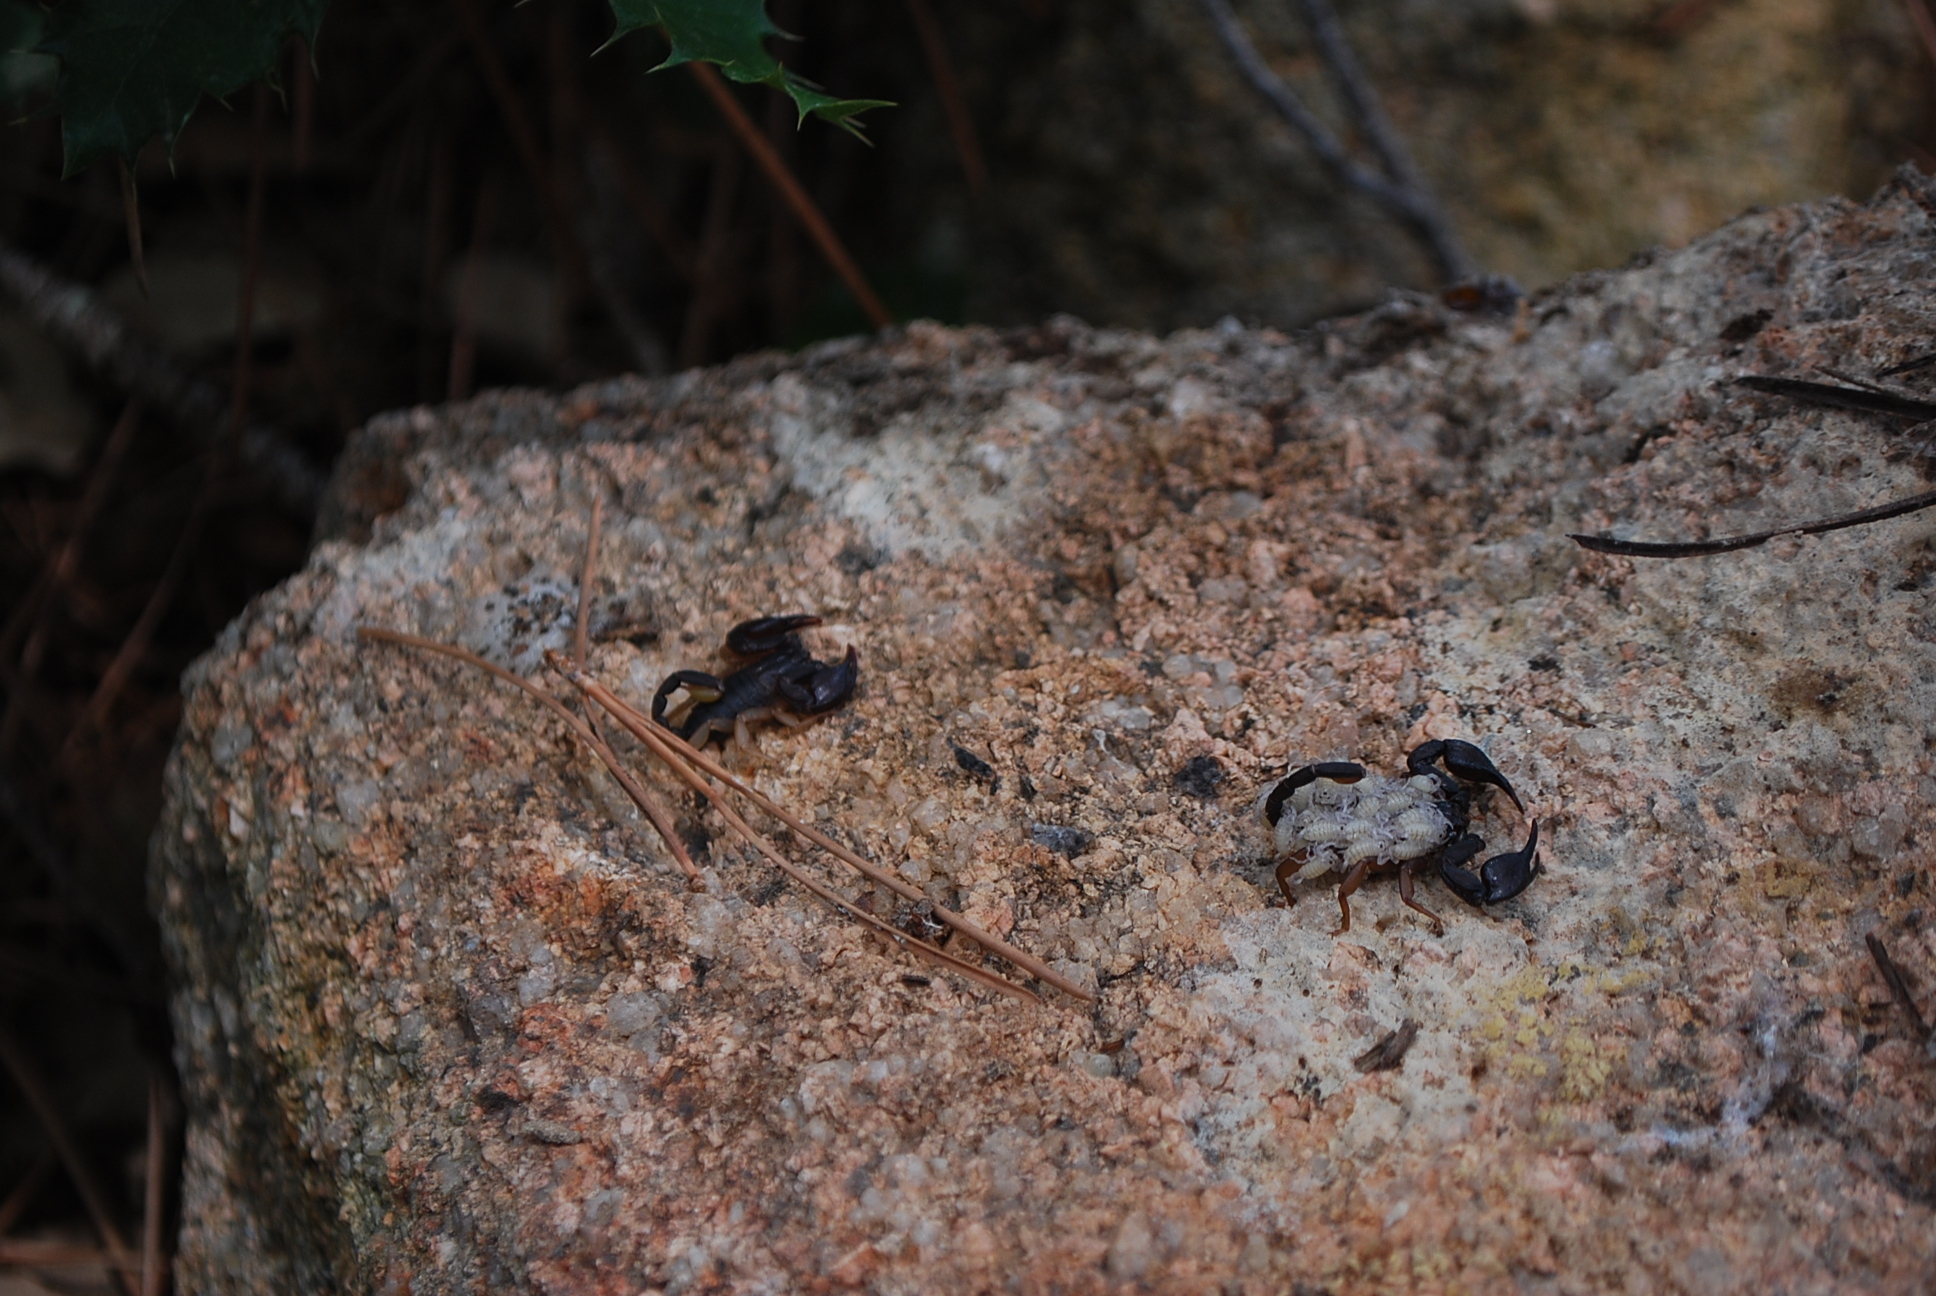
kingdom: Animalia
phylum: Arthropoda
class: Arachnida
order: Scorpiones
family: Euscorpiidae
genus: Euscorpius
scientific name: Euscorpius flavicaudis
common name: European yellow-tailed scorpion
